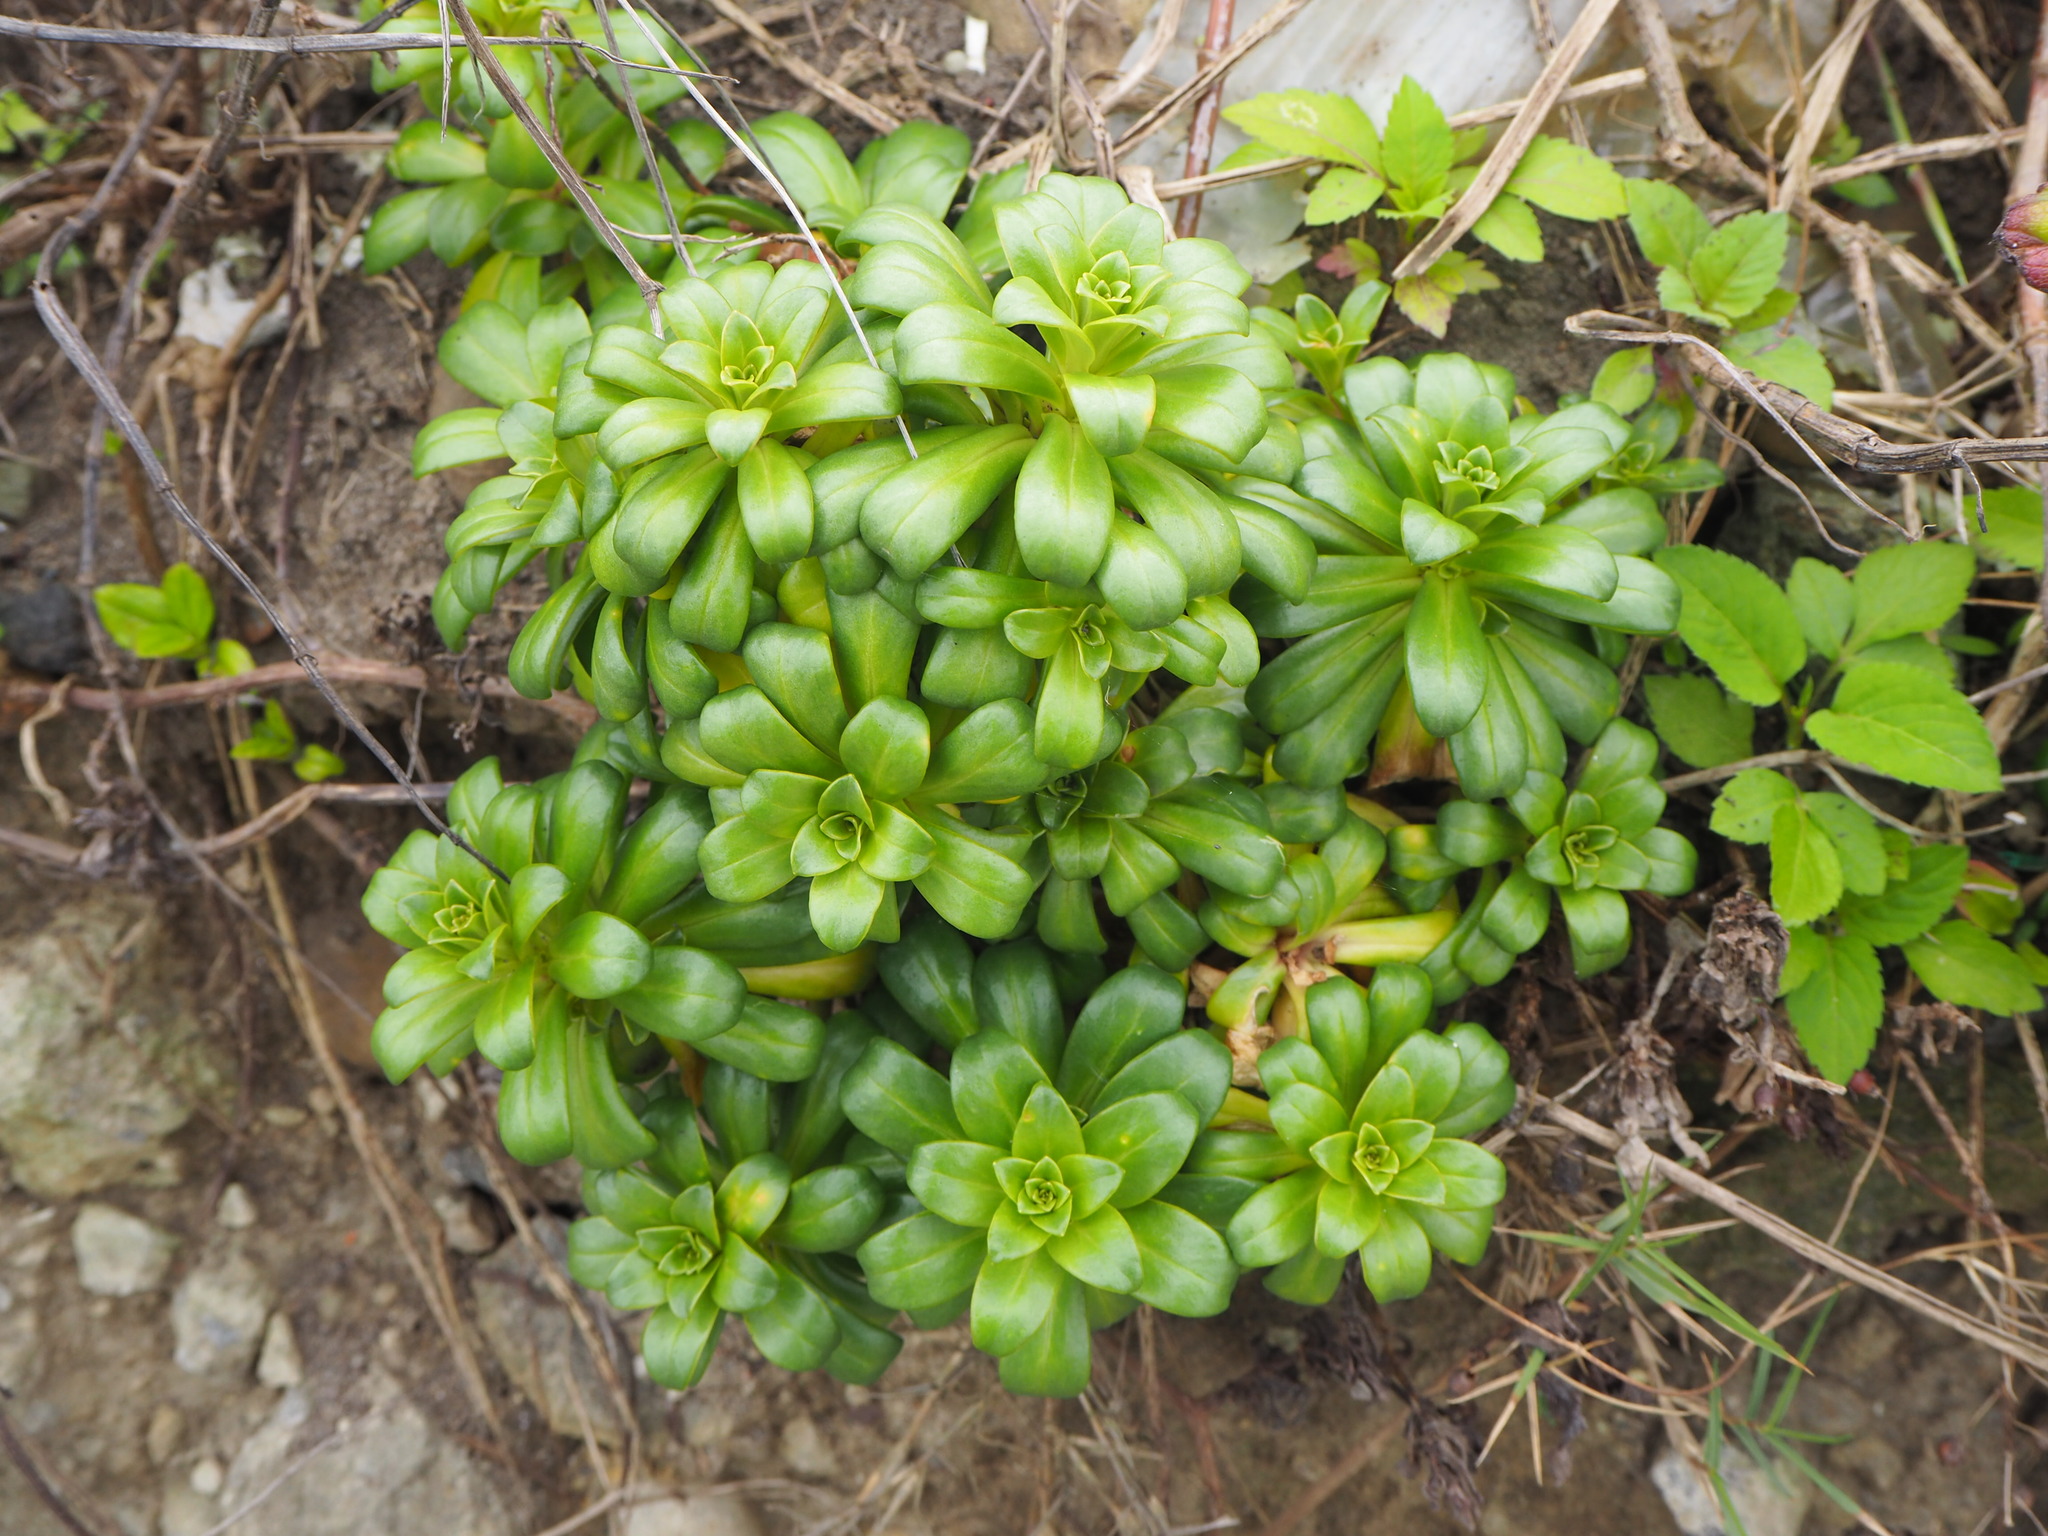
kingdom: Plantae
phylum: Tracheophyta
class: Magnoliopsida
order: Ericales
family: Primulaceae
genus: Lysimachia
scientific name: Lysimachia mauritiana
